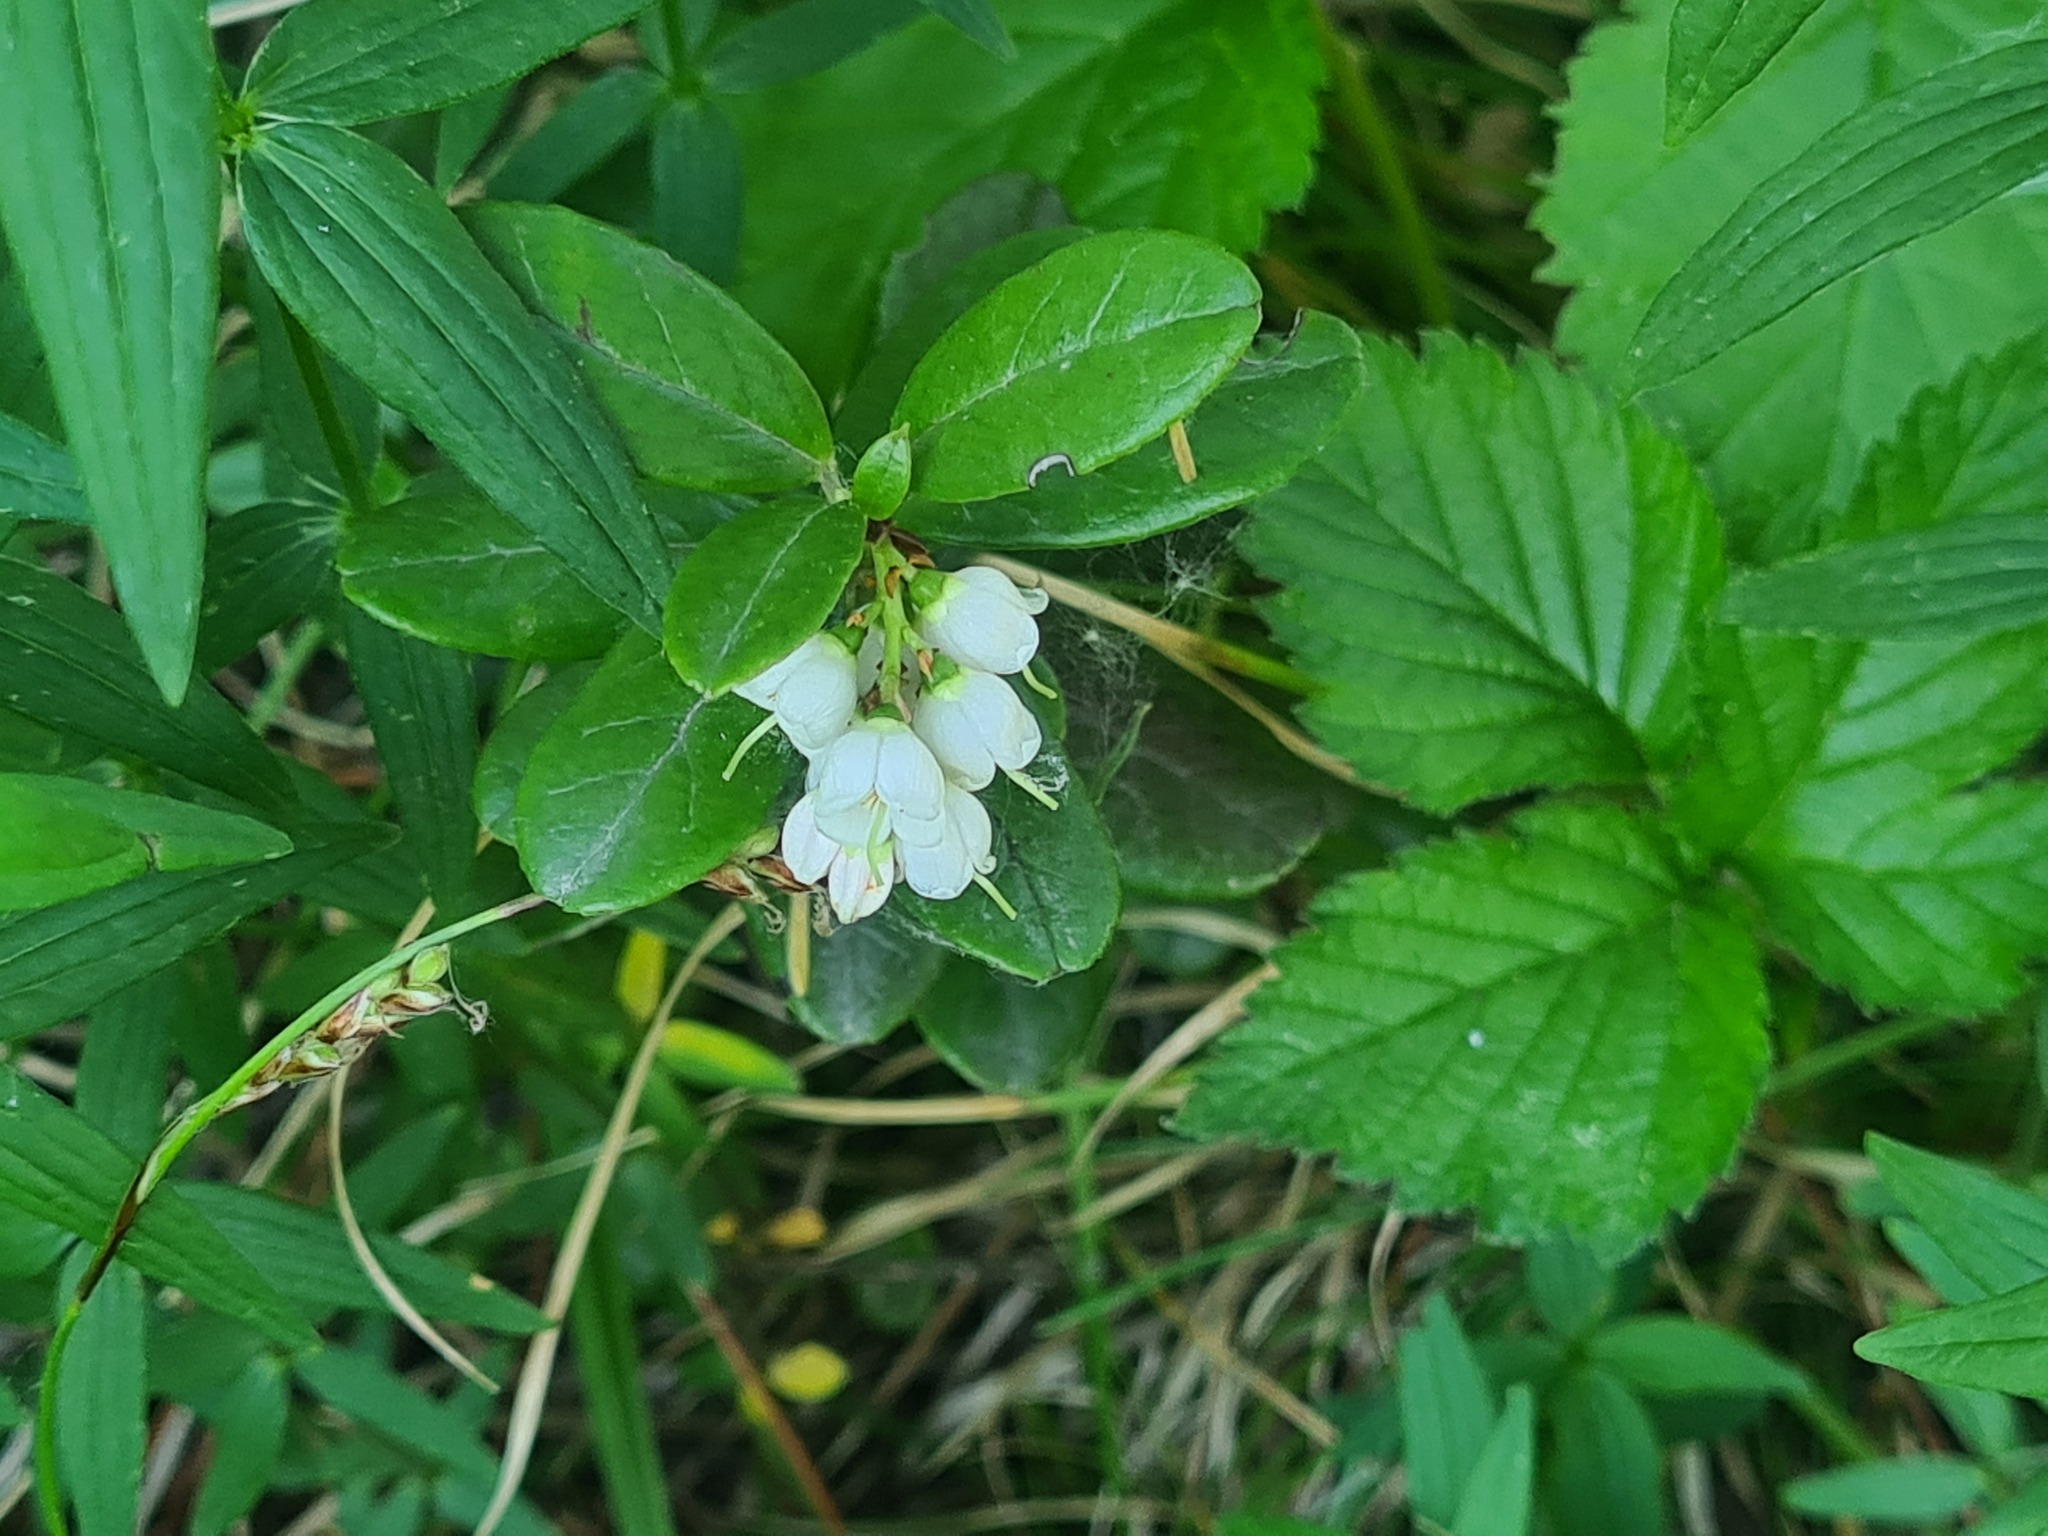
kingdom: Plantae
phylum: Tracheophyta
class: Magnoliopsida
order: Ericales
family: Ericaceae
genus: Vaccinium
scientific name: Vaccinium vitis-idaea
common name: Cowberry
